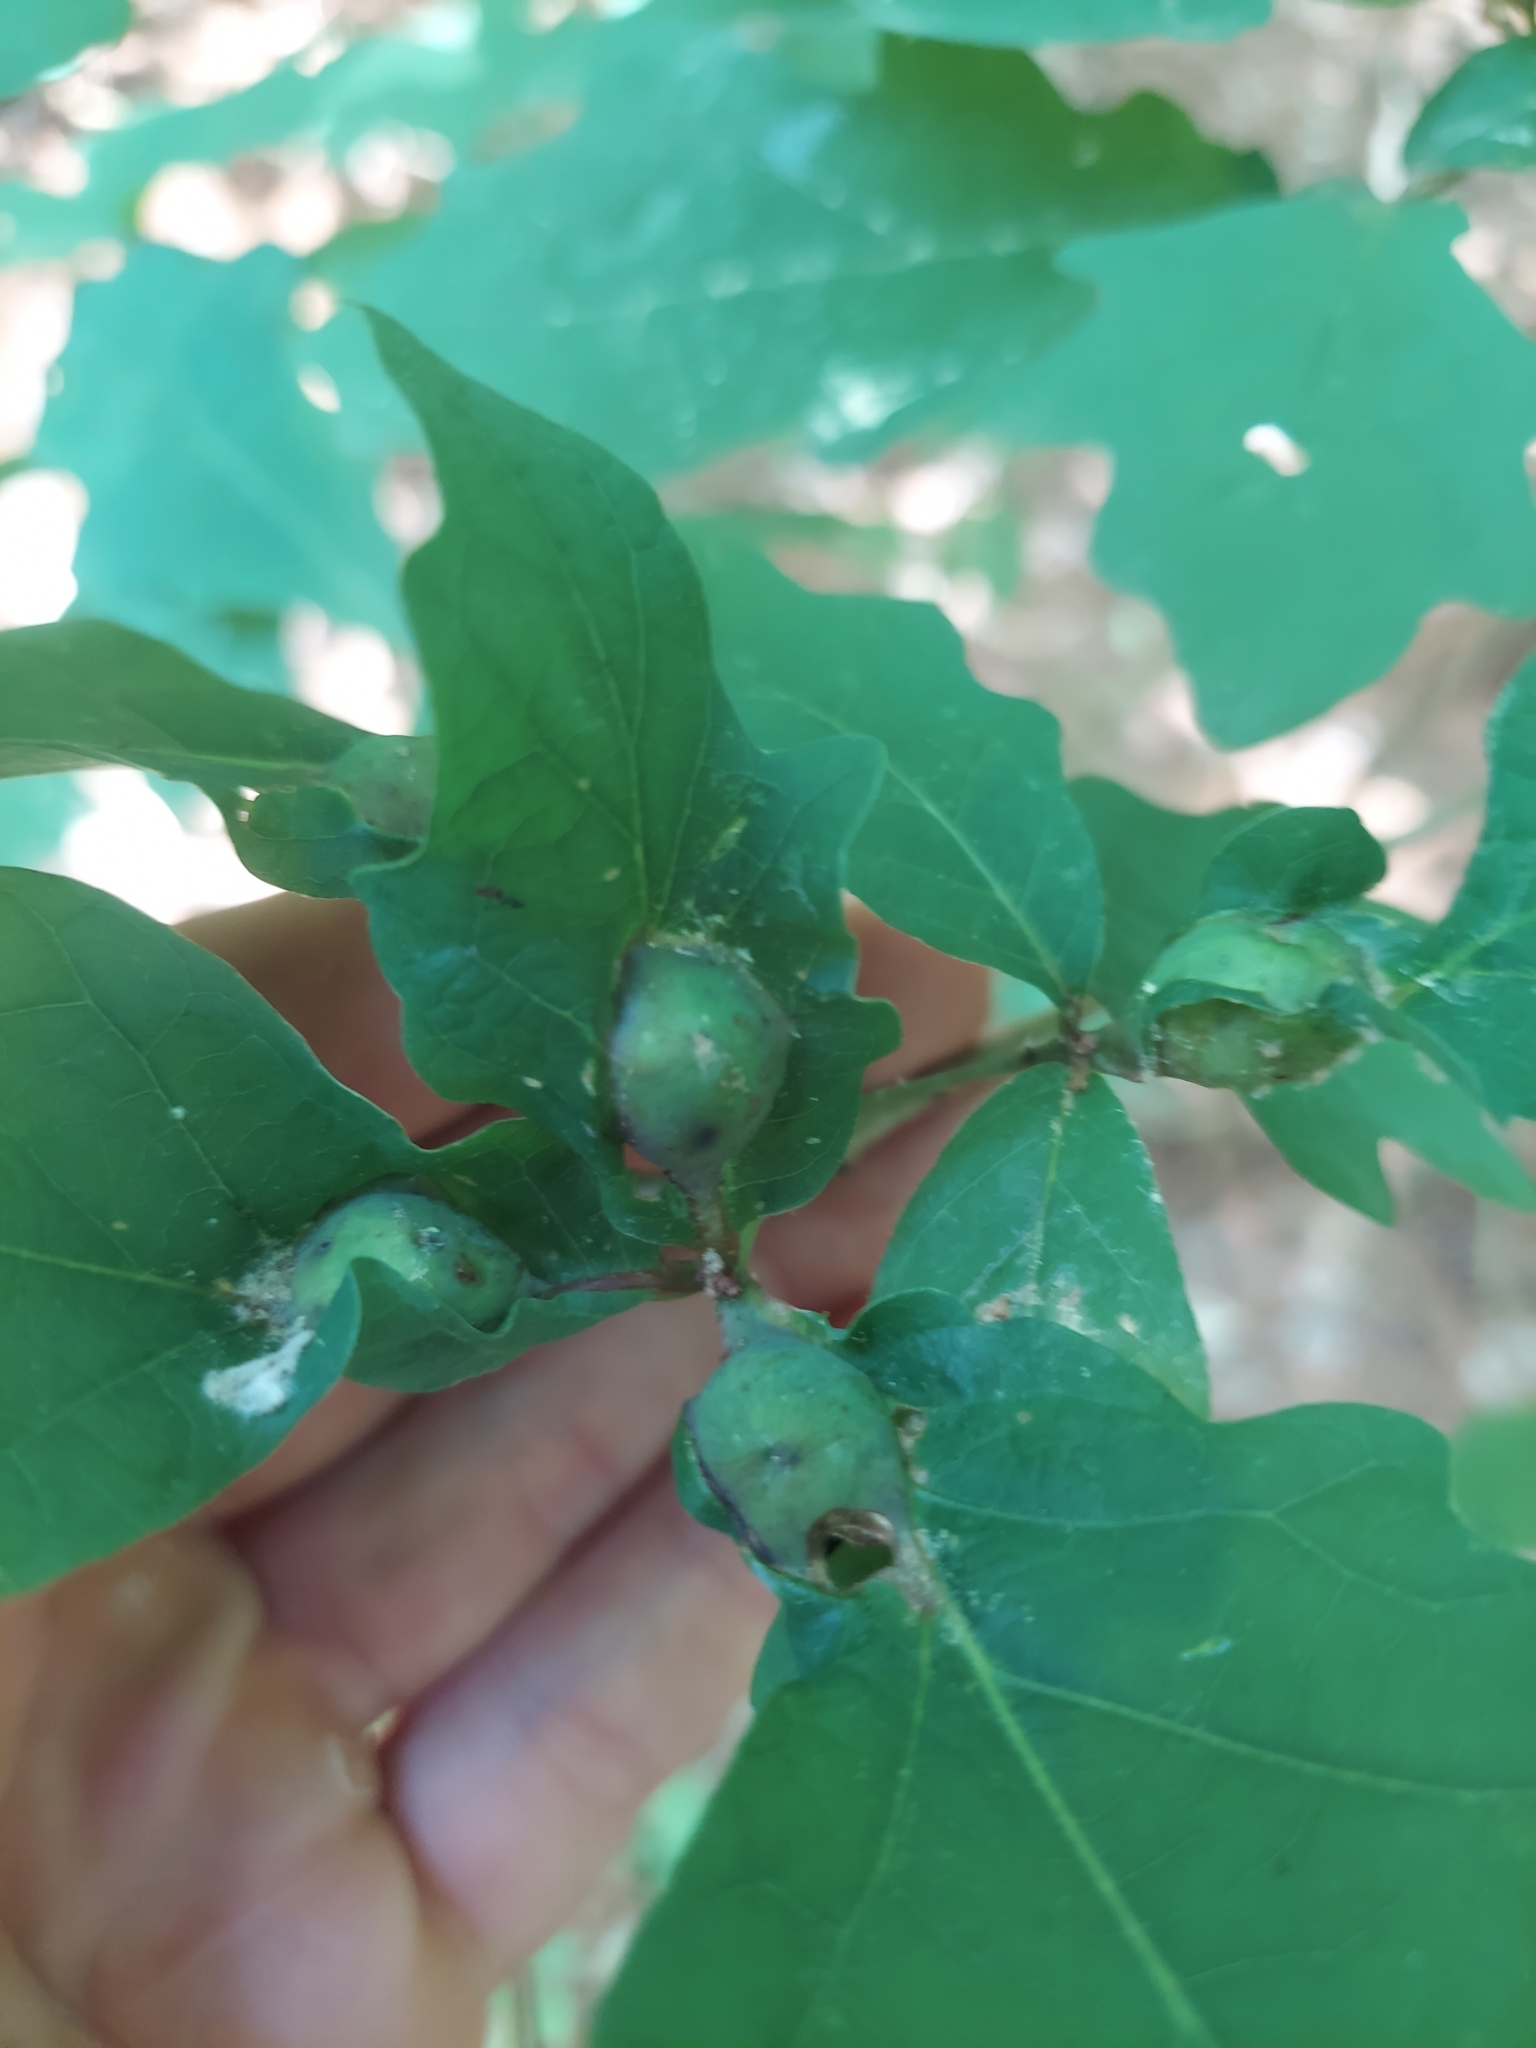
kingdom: Animalia
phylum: Arthropoda
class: Insecta
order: Hymenoptera
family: Cynipidae
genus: Andricus
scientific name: Andricus
